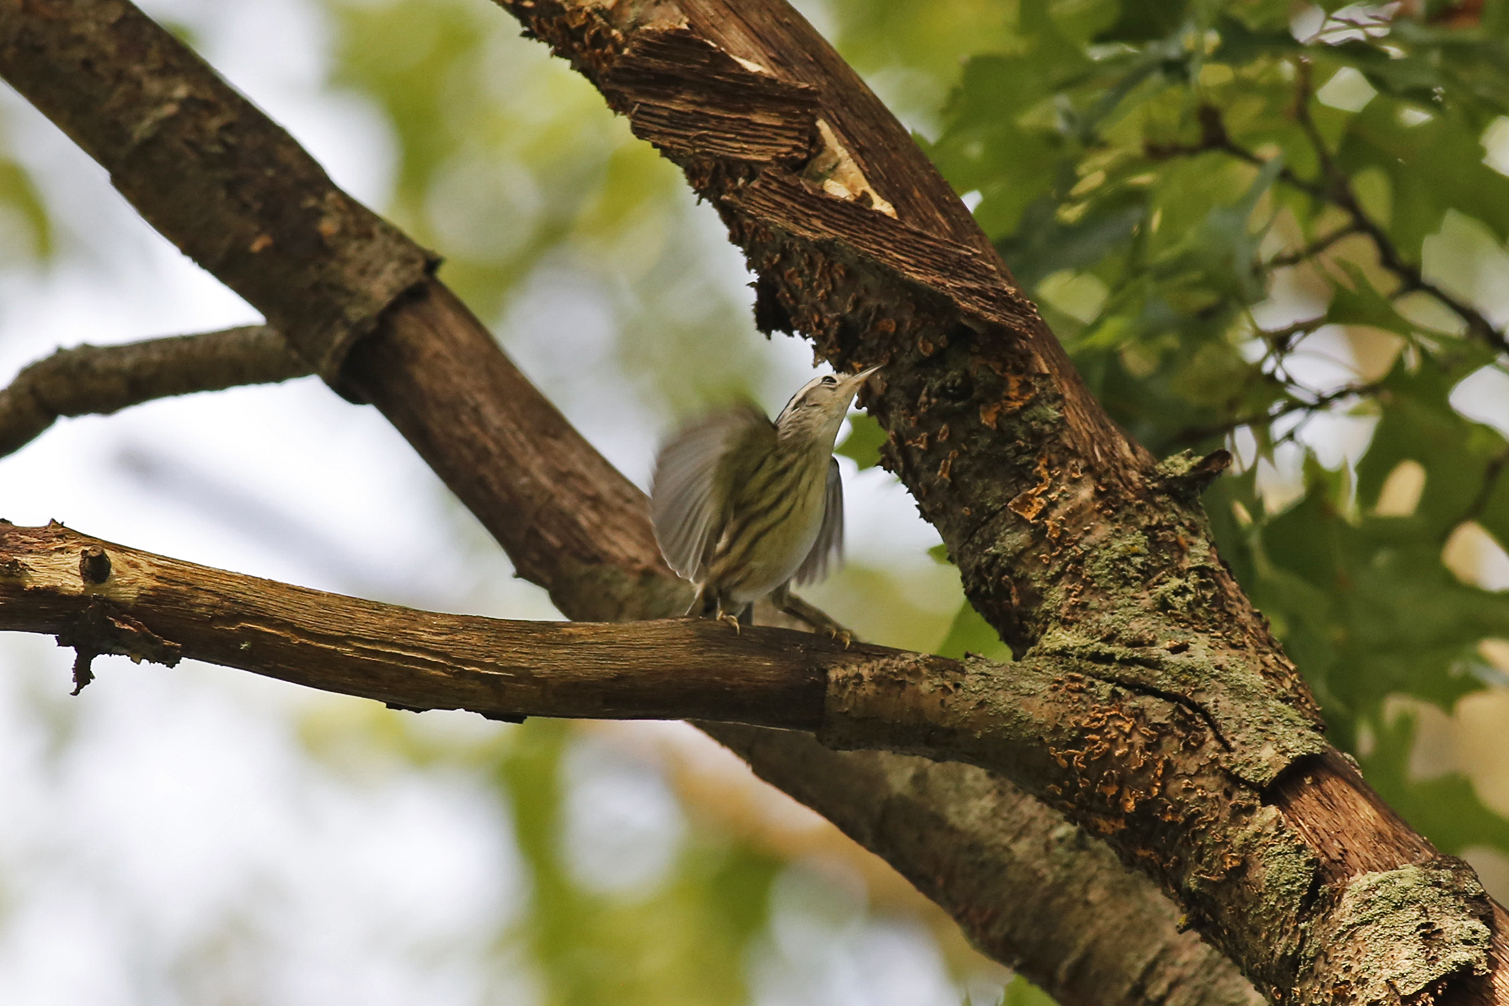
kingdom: Animalia
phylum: Chordata
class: Aves
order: Passeriformes
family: Parulidae
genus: Mniotilta
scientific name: Mniotilta varia
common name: Black-and-white warbler
